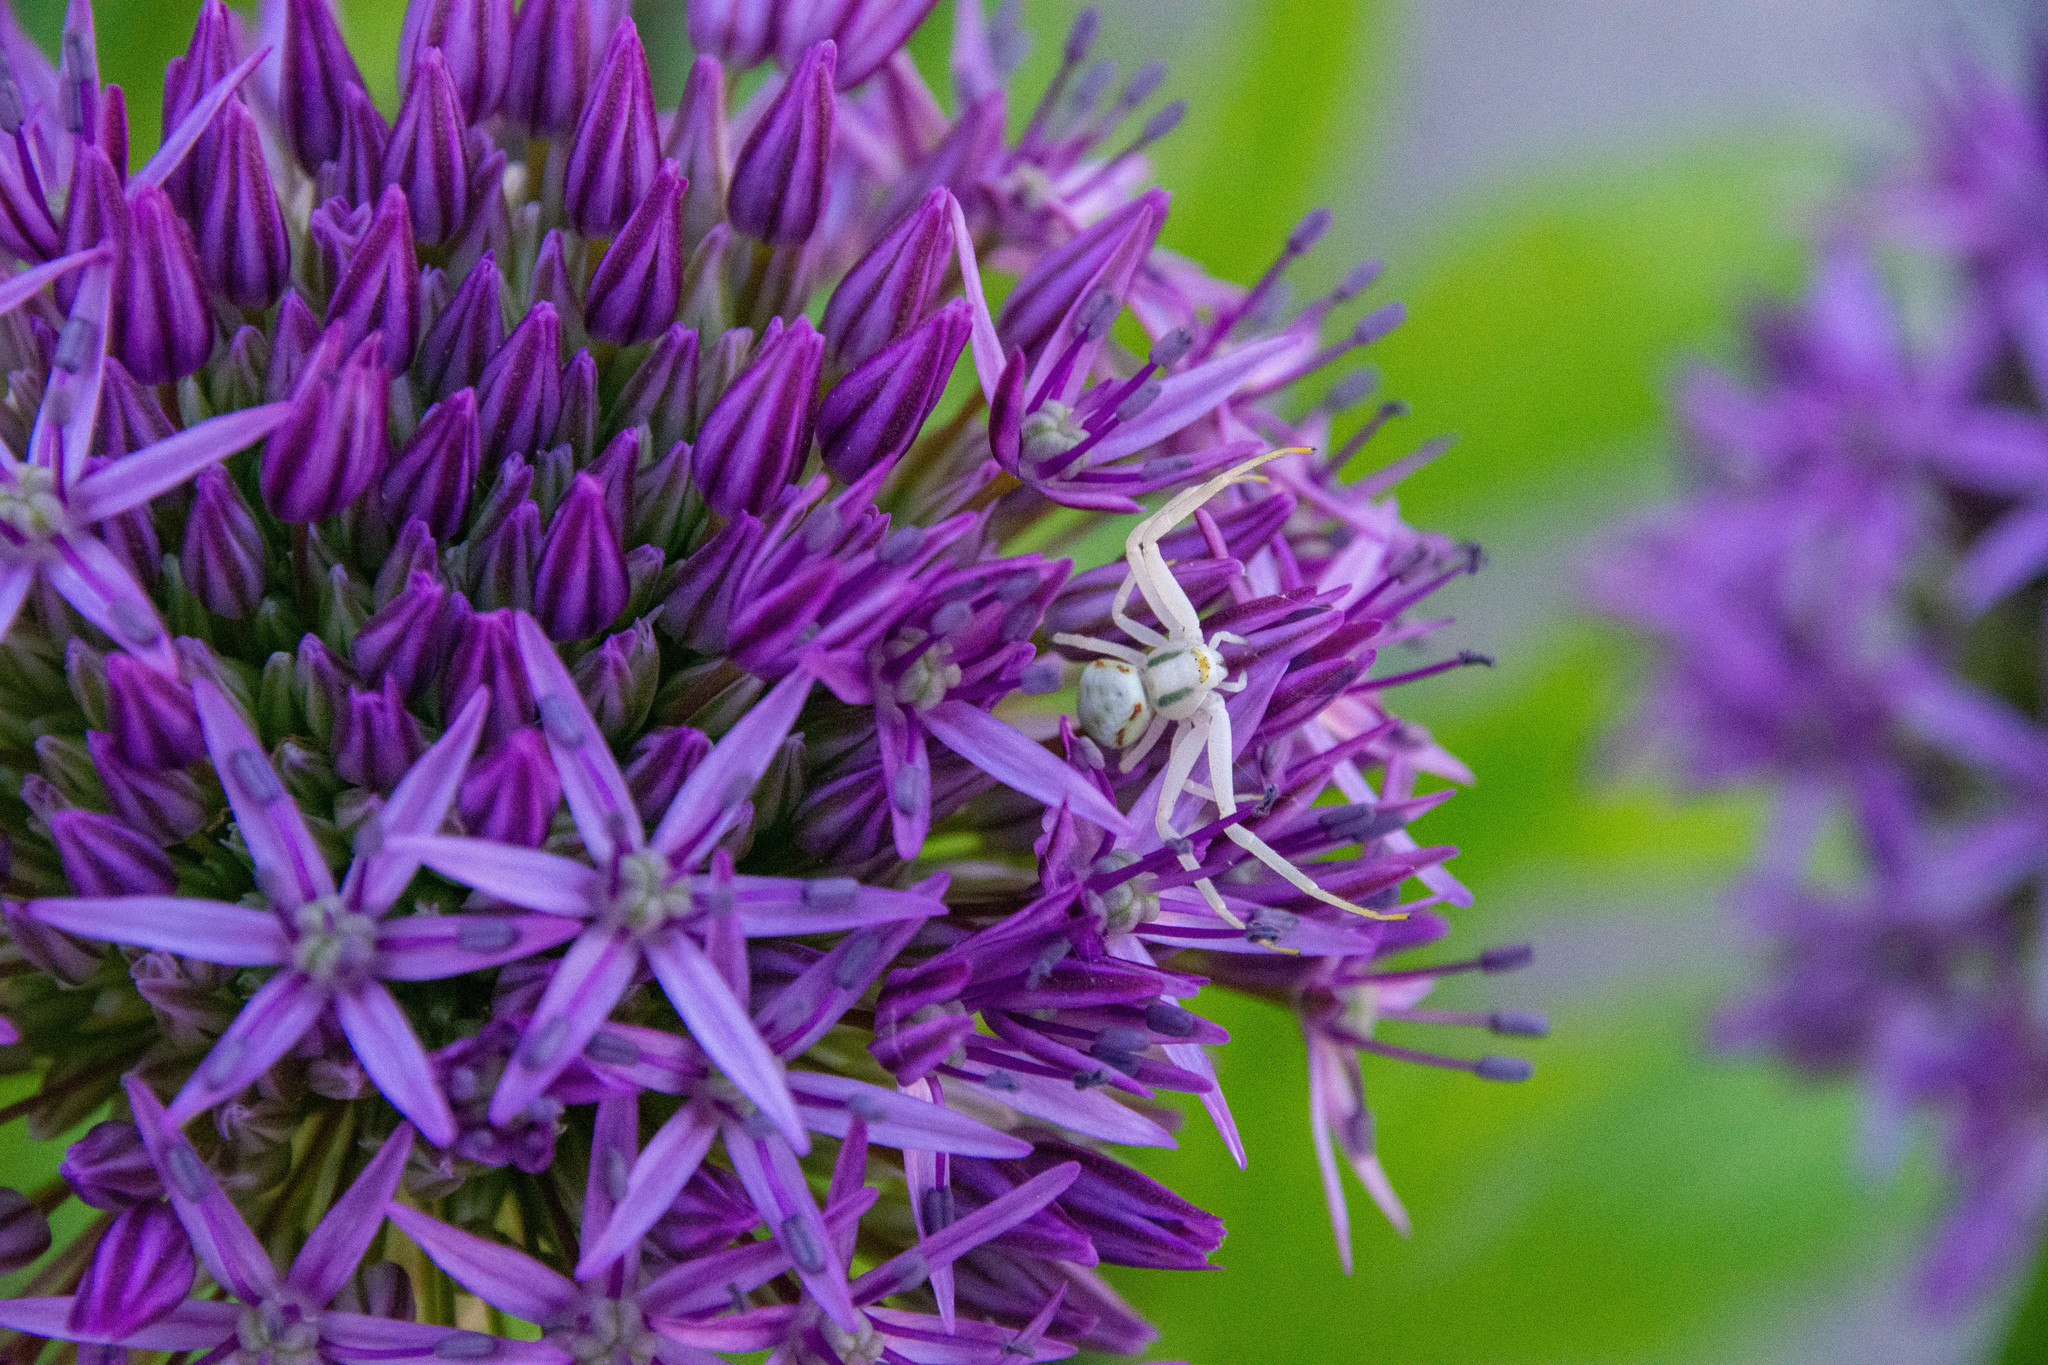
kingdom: Animalia
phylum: Arthropoda
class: Arachnida
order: Araneae
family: Thomisidae
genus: Misumena
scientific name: Misumena vatia
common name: Goldenrod crab spider
